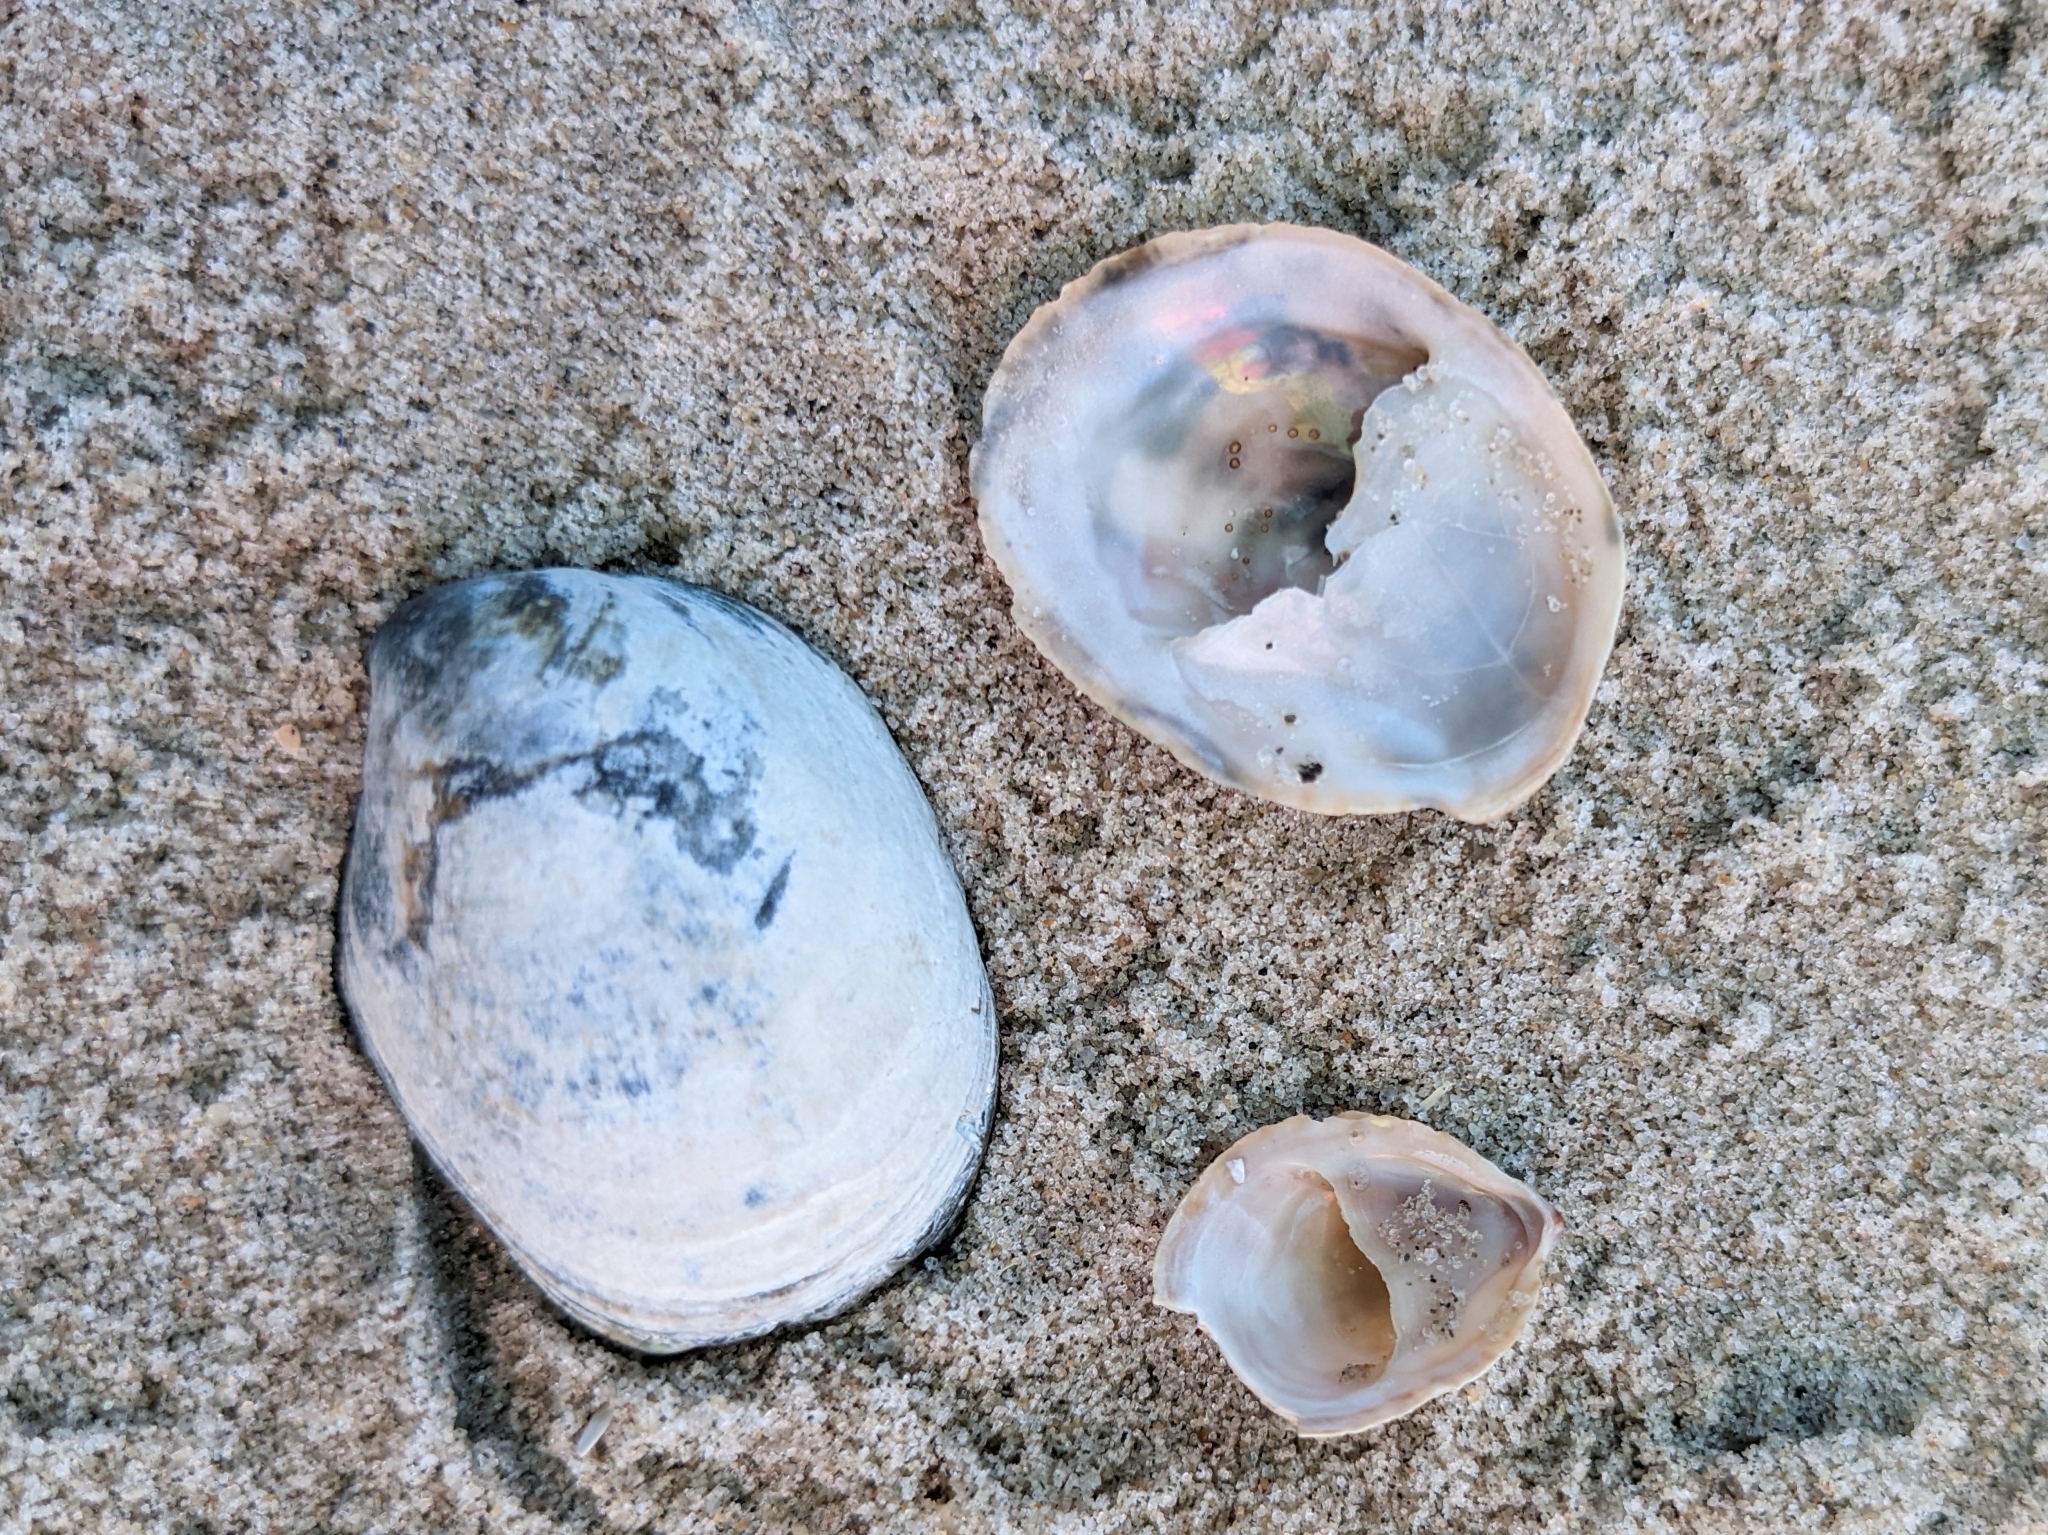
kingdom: Animalia
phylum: Mollusca
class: Gastropoda
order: Littorinimorpha
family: Calyptraeidae
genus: Crepidula
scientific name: Crepidula fornicata
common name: Slipper limpet
